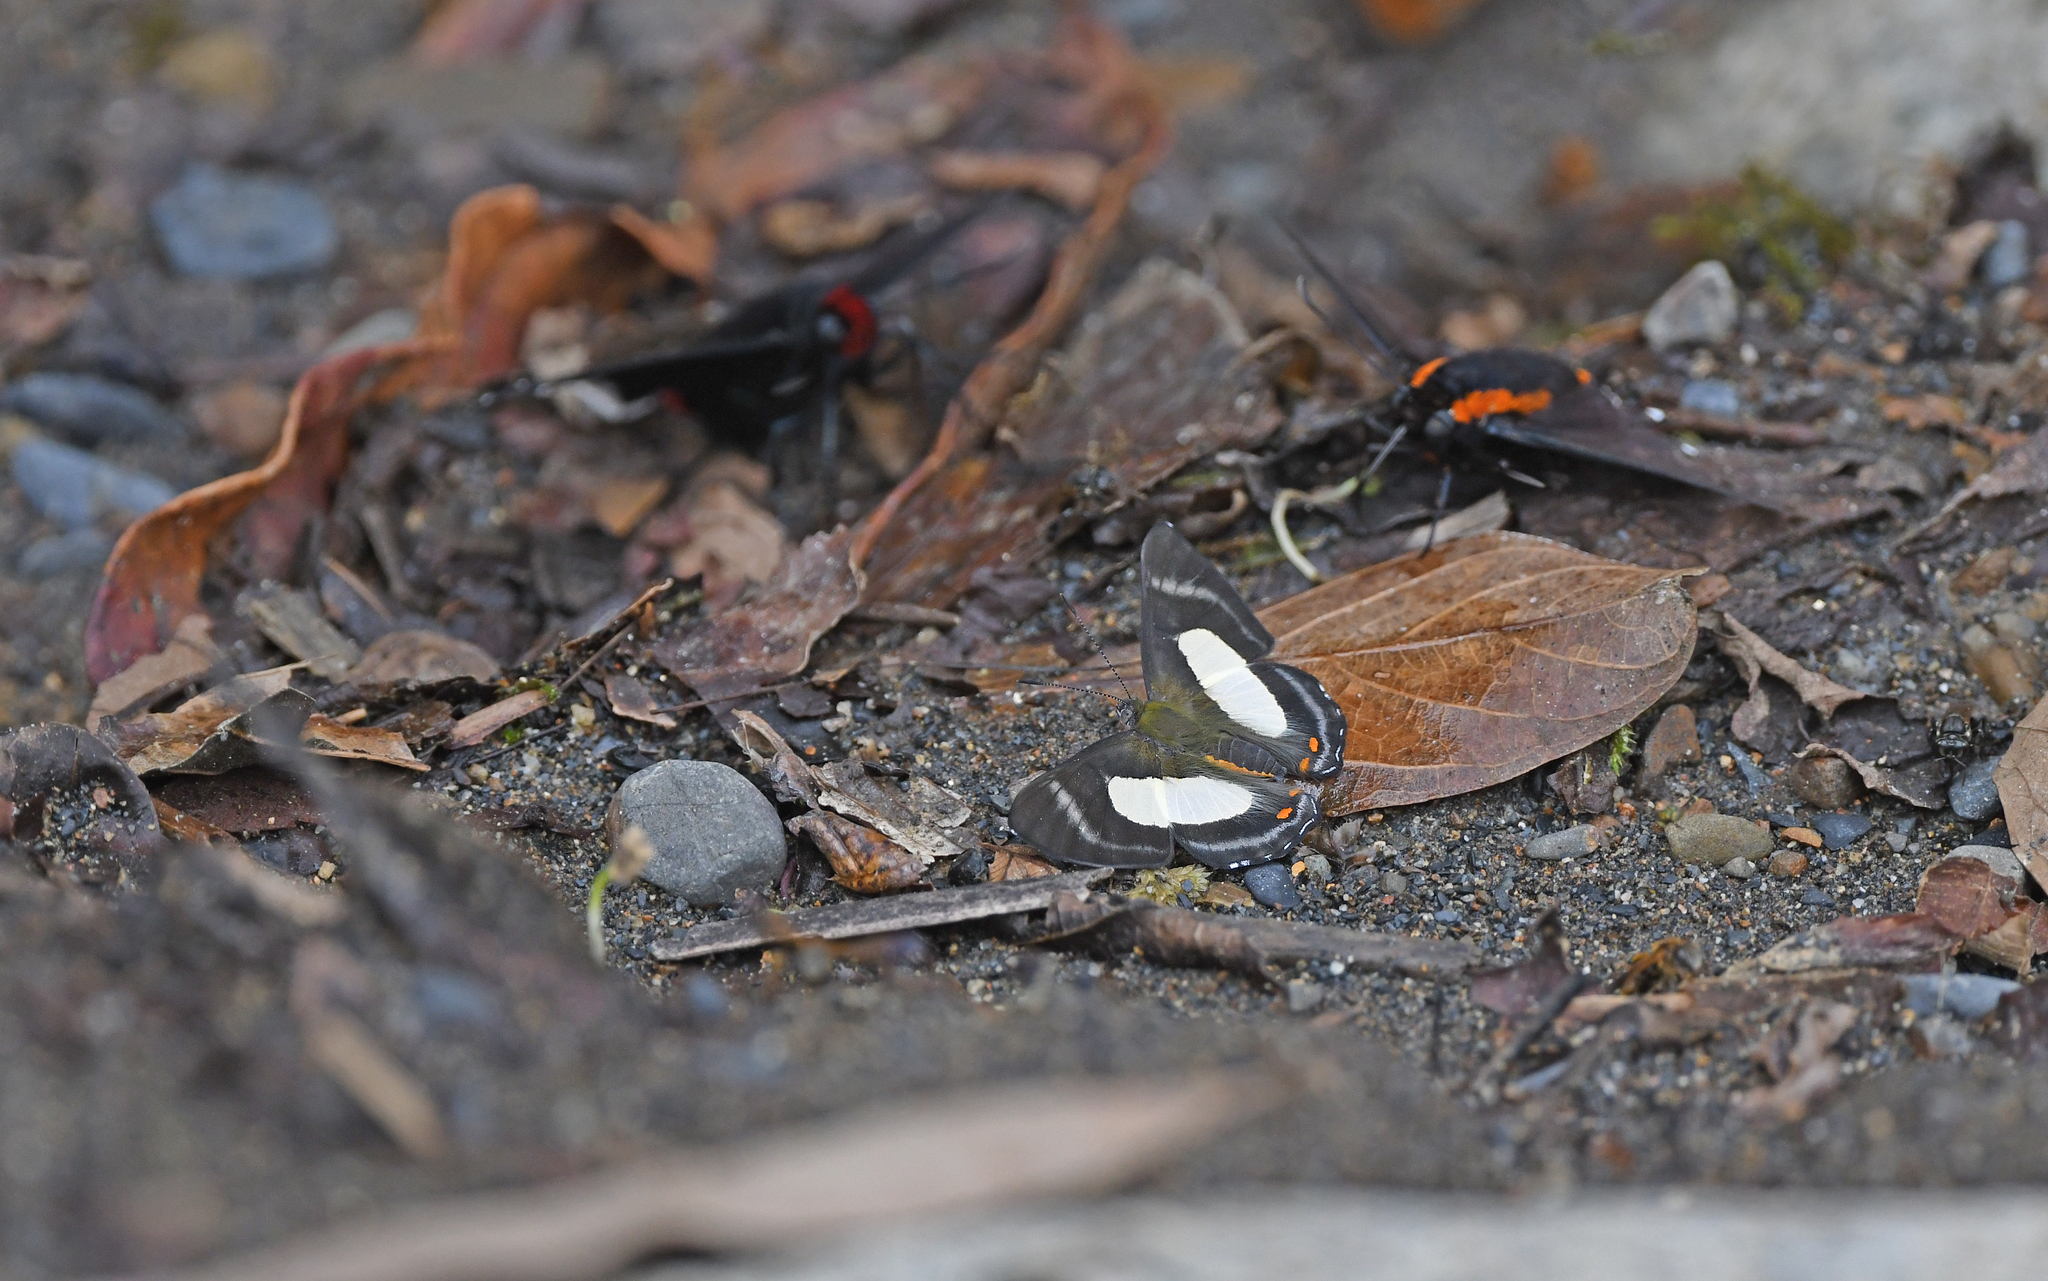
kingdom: Animalia
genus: Siseme
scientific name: Siseme alectryo
